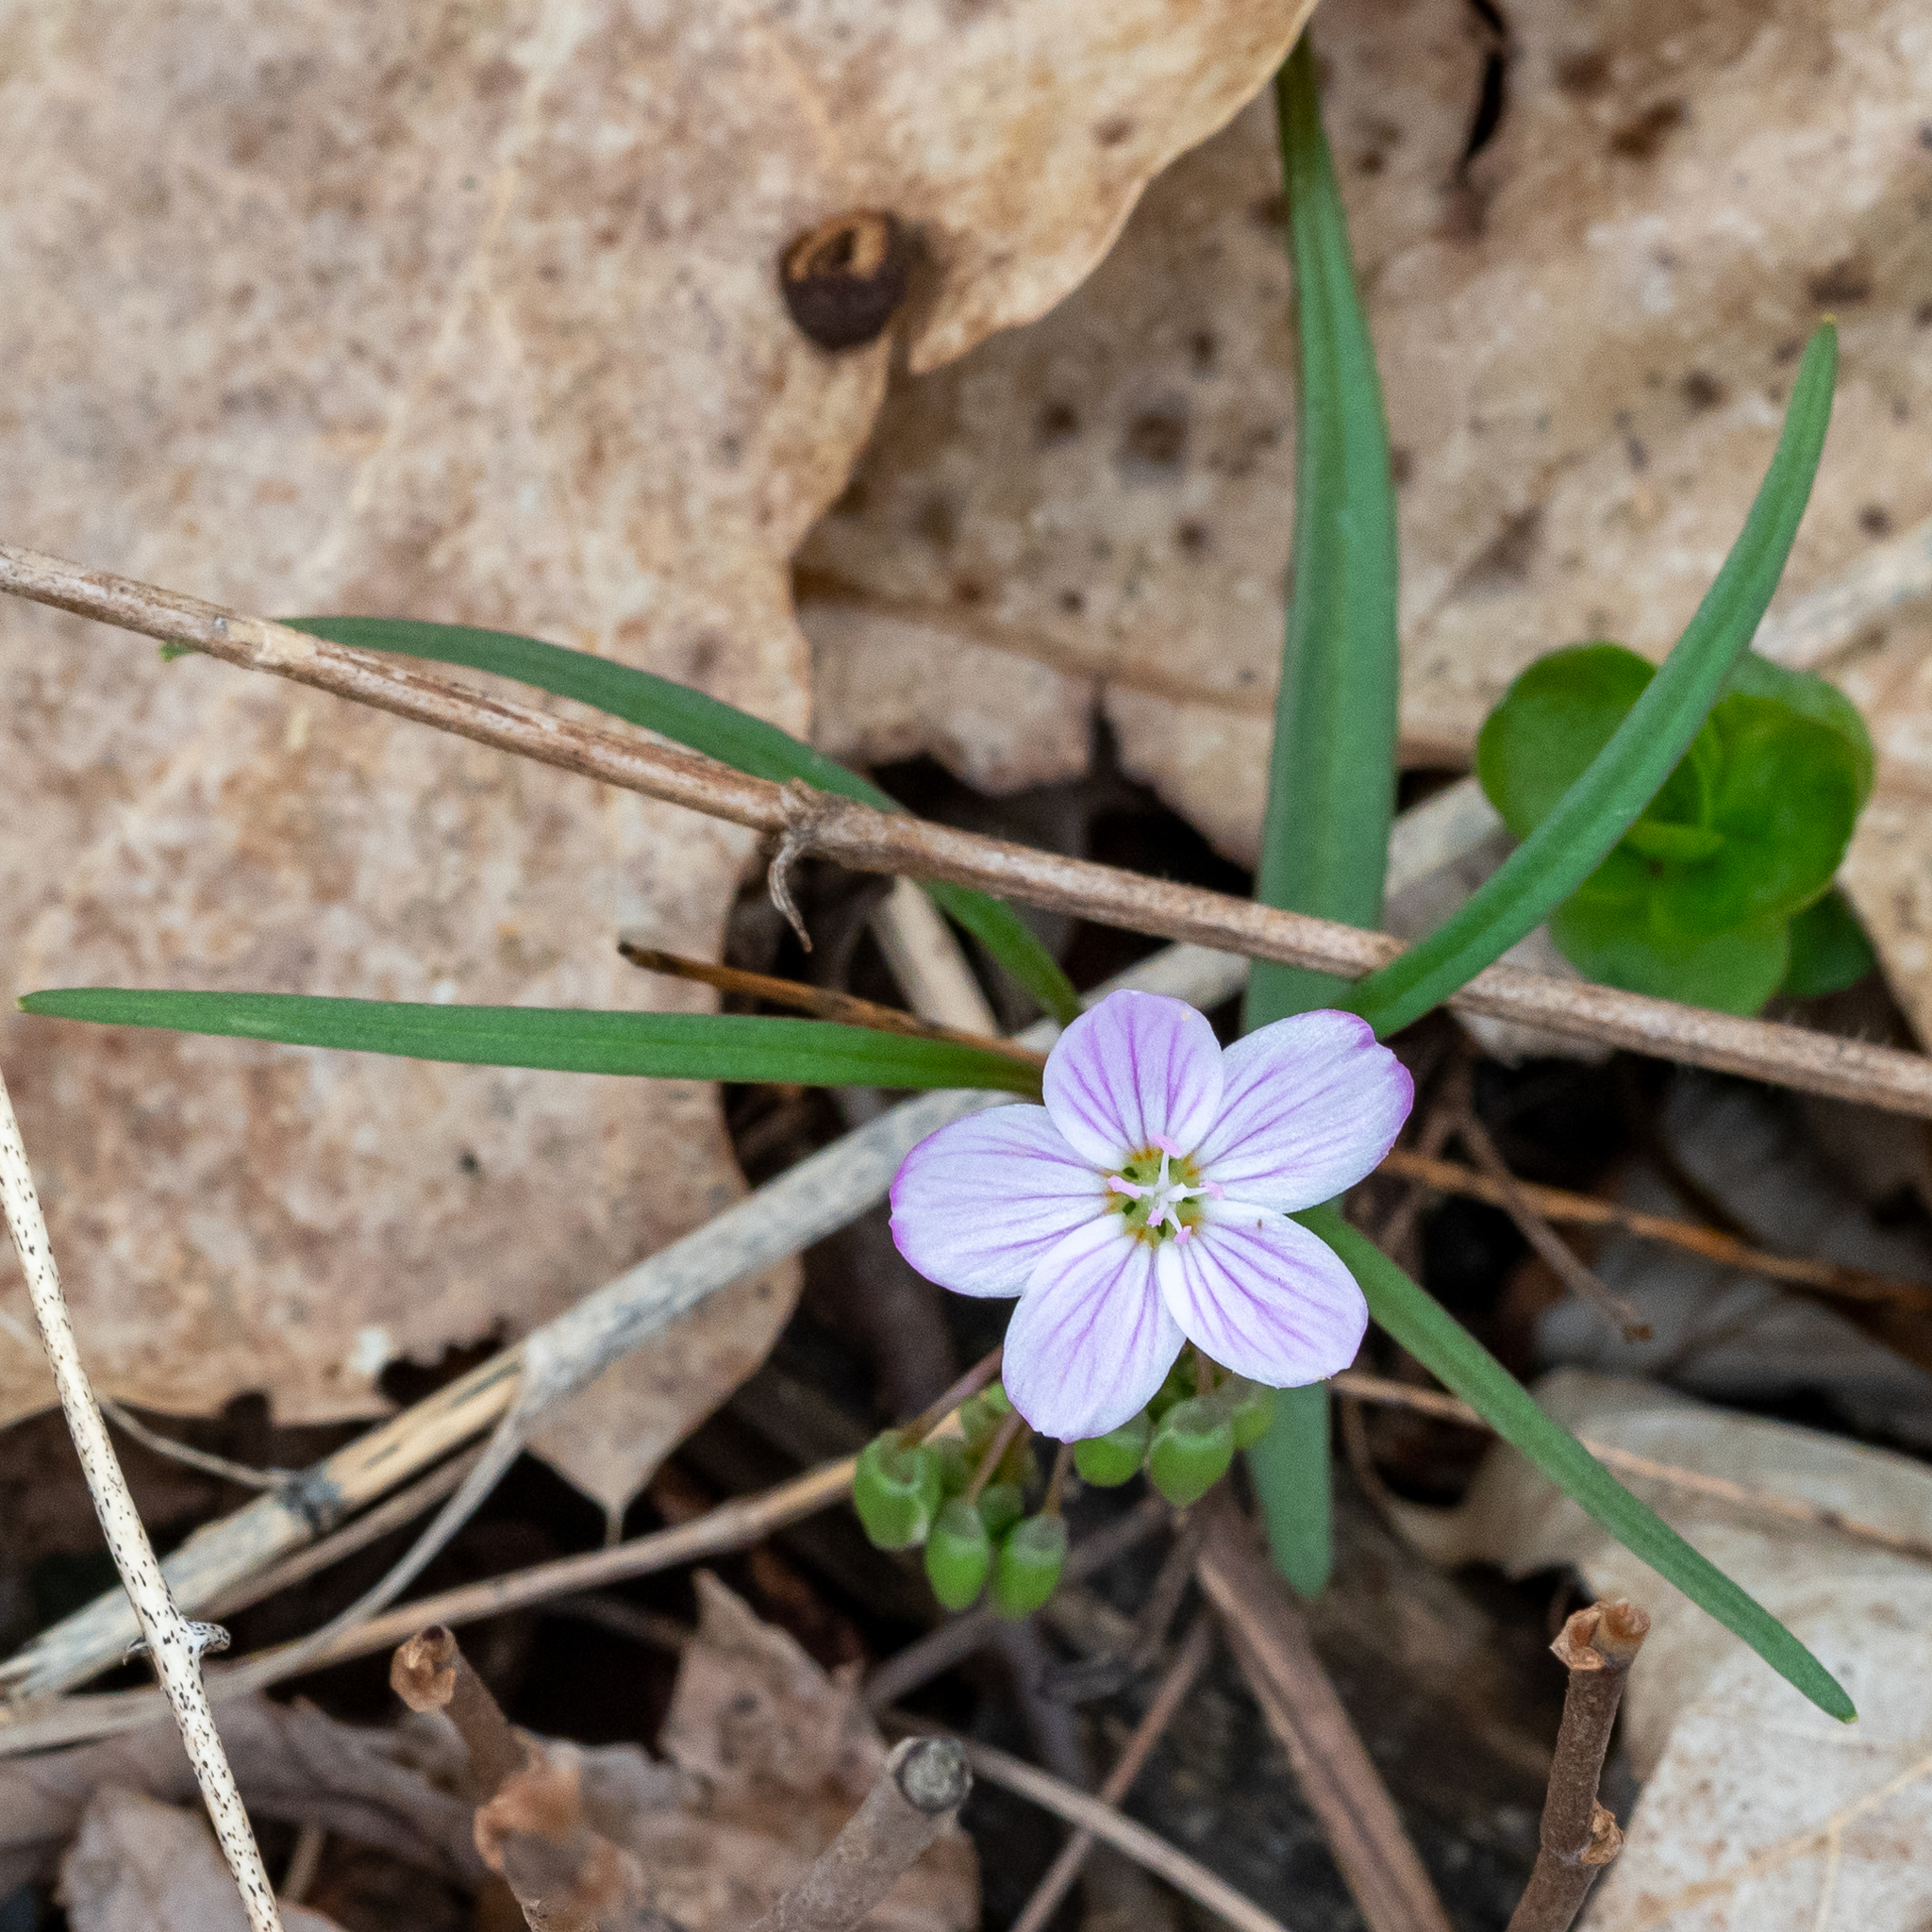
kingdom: Plantae
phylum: Tracheophyta
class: Magnoliopsida
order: Caryophyllales
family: Montiaceae
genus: Claytonia
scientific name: Claytonia virginica
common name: Virginia springbeauty
